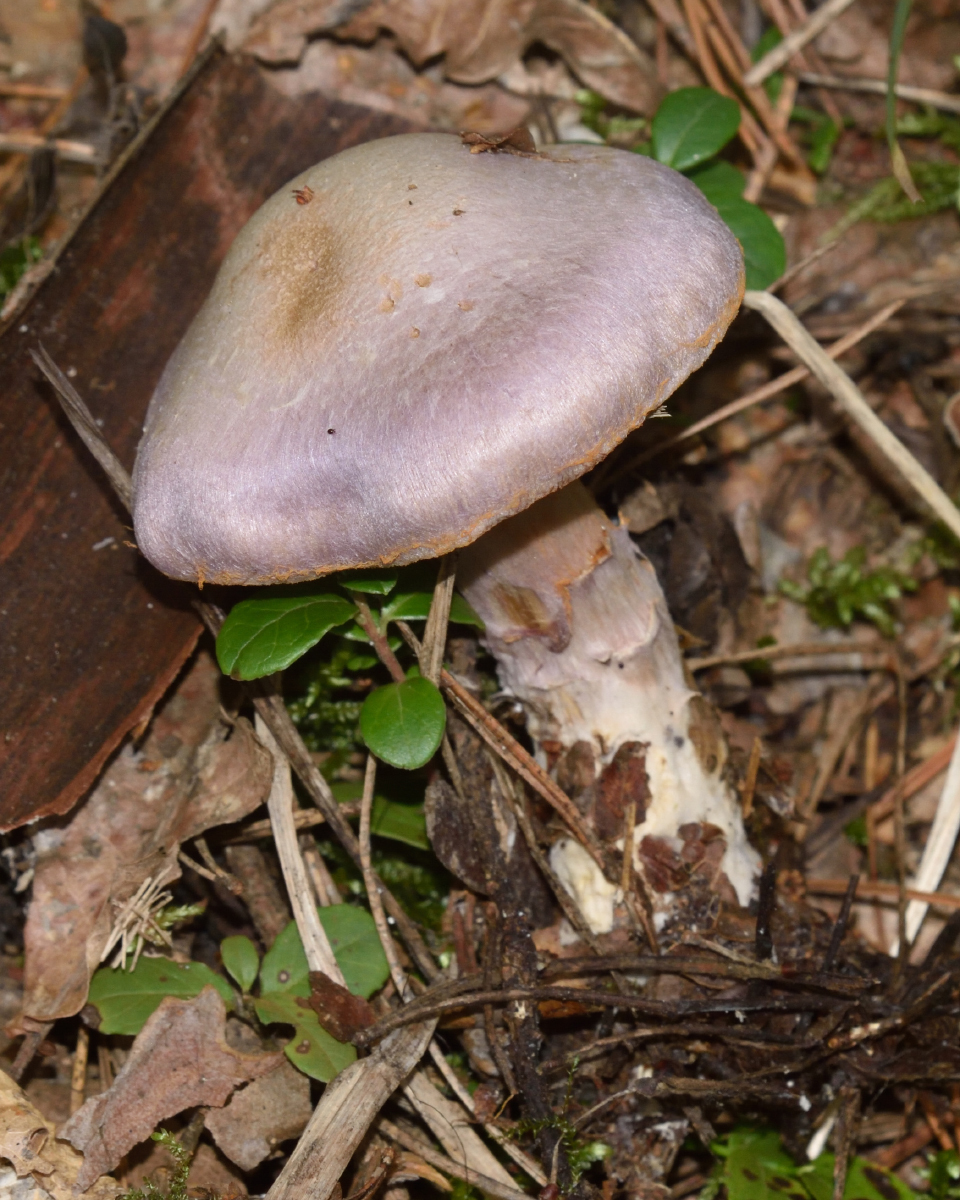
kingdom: Fungi
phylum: Basidiomycota
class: Agaricomycetes
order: Agaricales
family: Cortinariaceae
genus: Cortinarius
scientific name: Cortinarius traganus
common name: Gassy webcap
